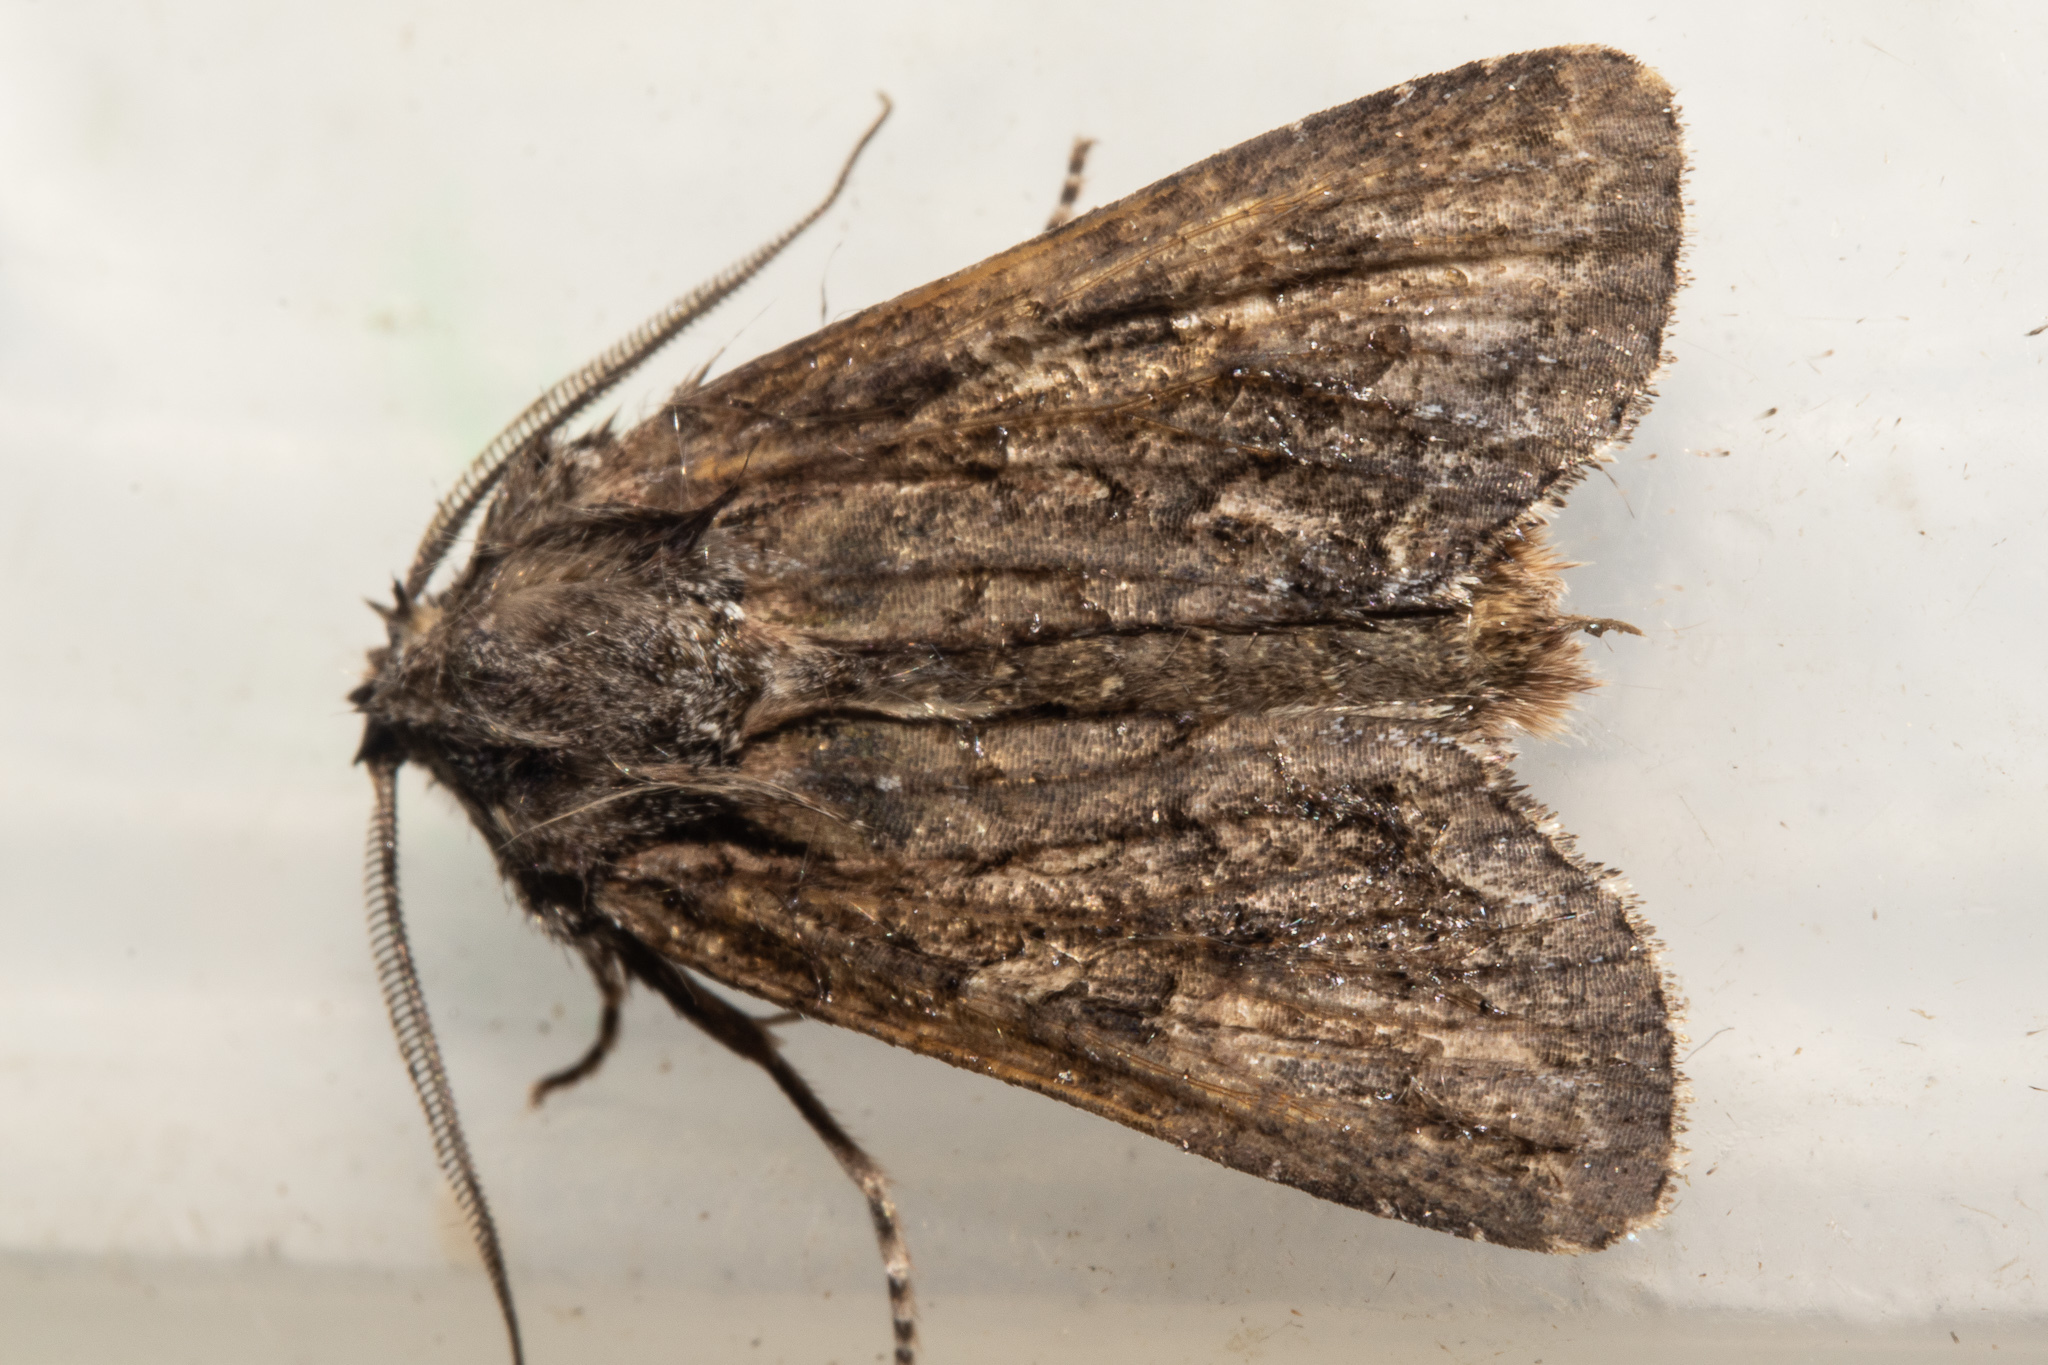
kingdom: Animalia
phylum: Arthropoda
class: Insecta
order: Lepidoptera
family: Noctuidae
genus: Ichneutica
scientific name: Ichneutica mutans
